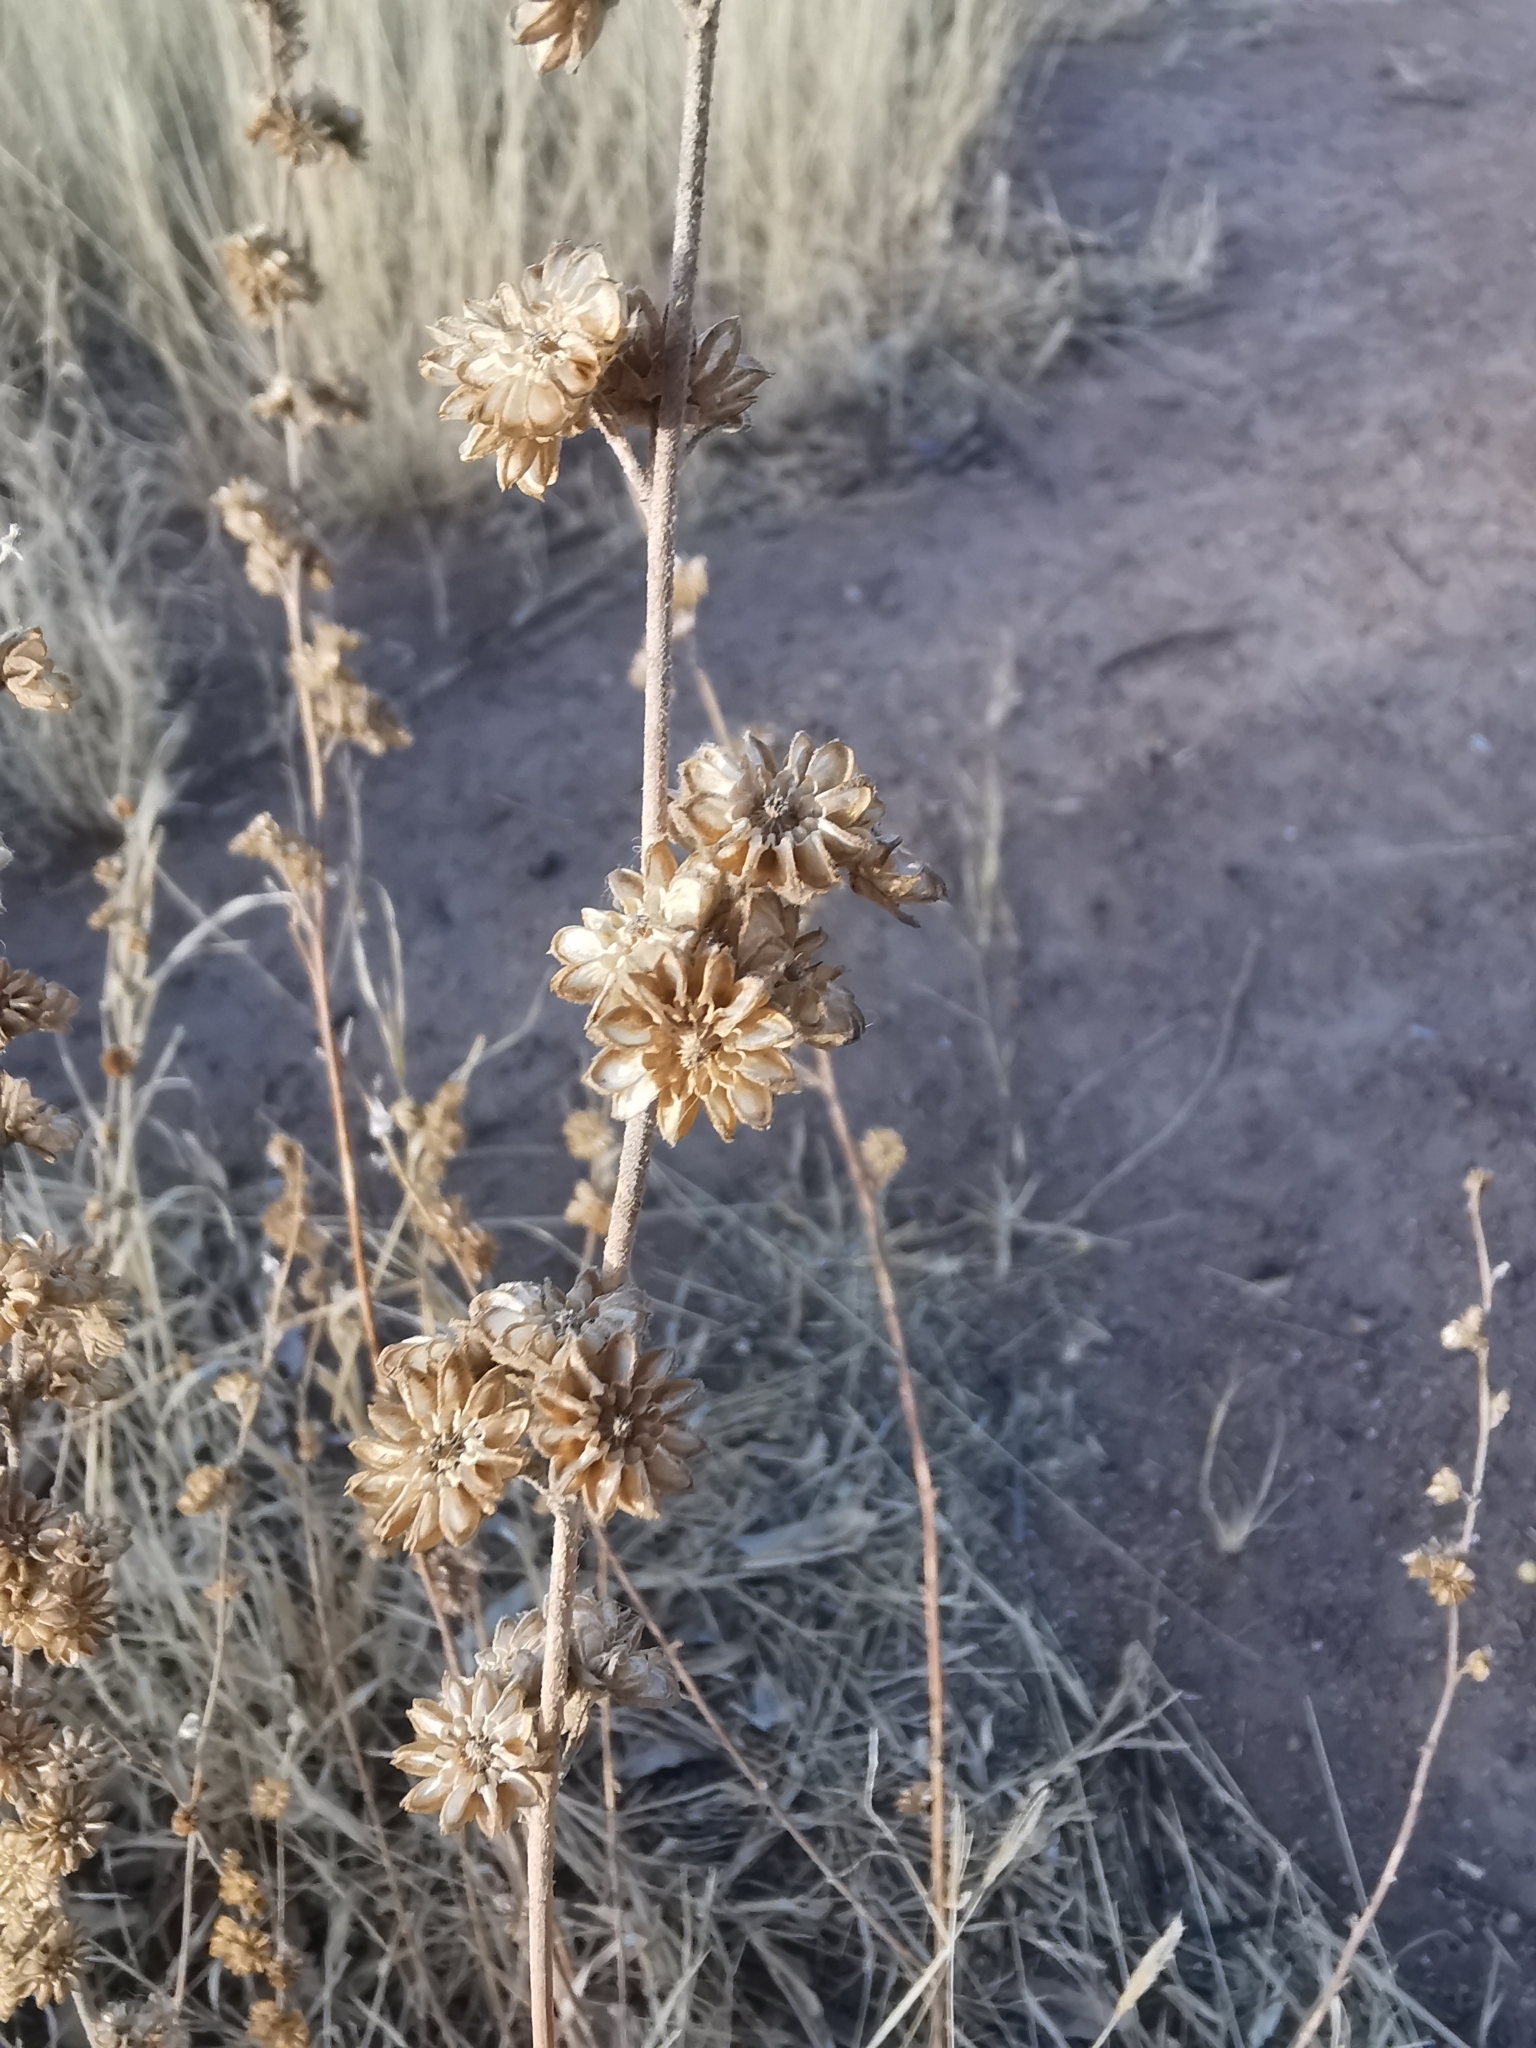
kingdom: Plantae
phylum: Tracheophyta
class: Magnoliopsida
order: Malvales
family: Malvaceae
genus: Sphaeralcea
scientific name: Sphaeralcea angustifolia
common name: Copper globe-mallow
